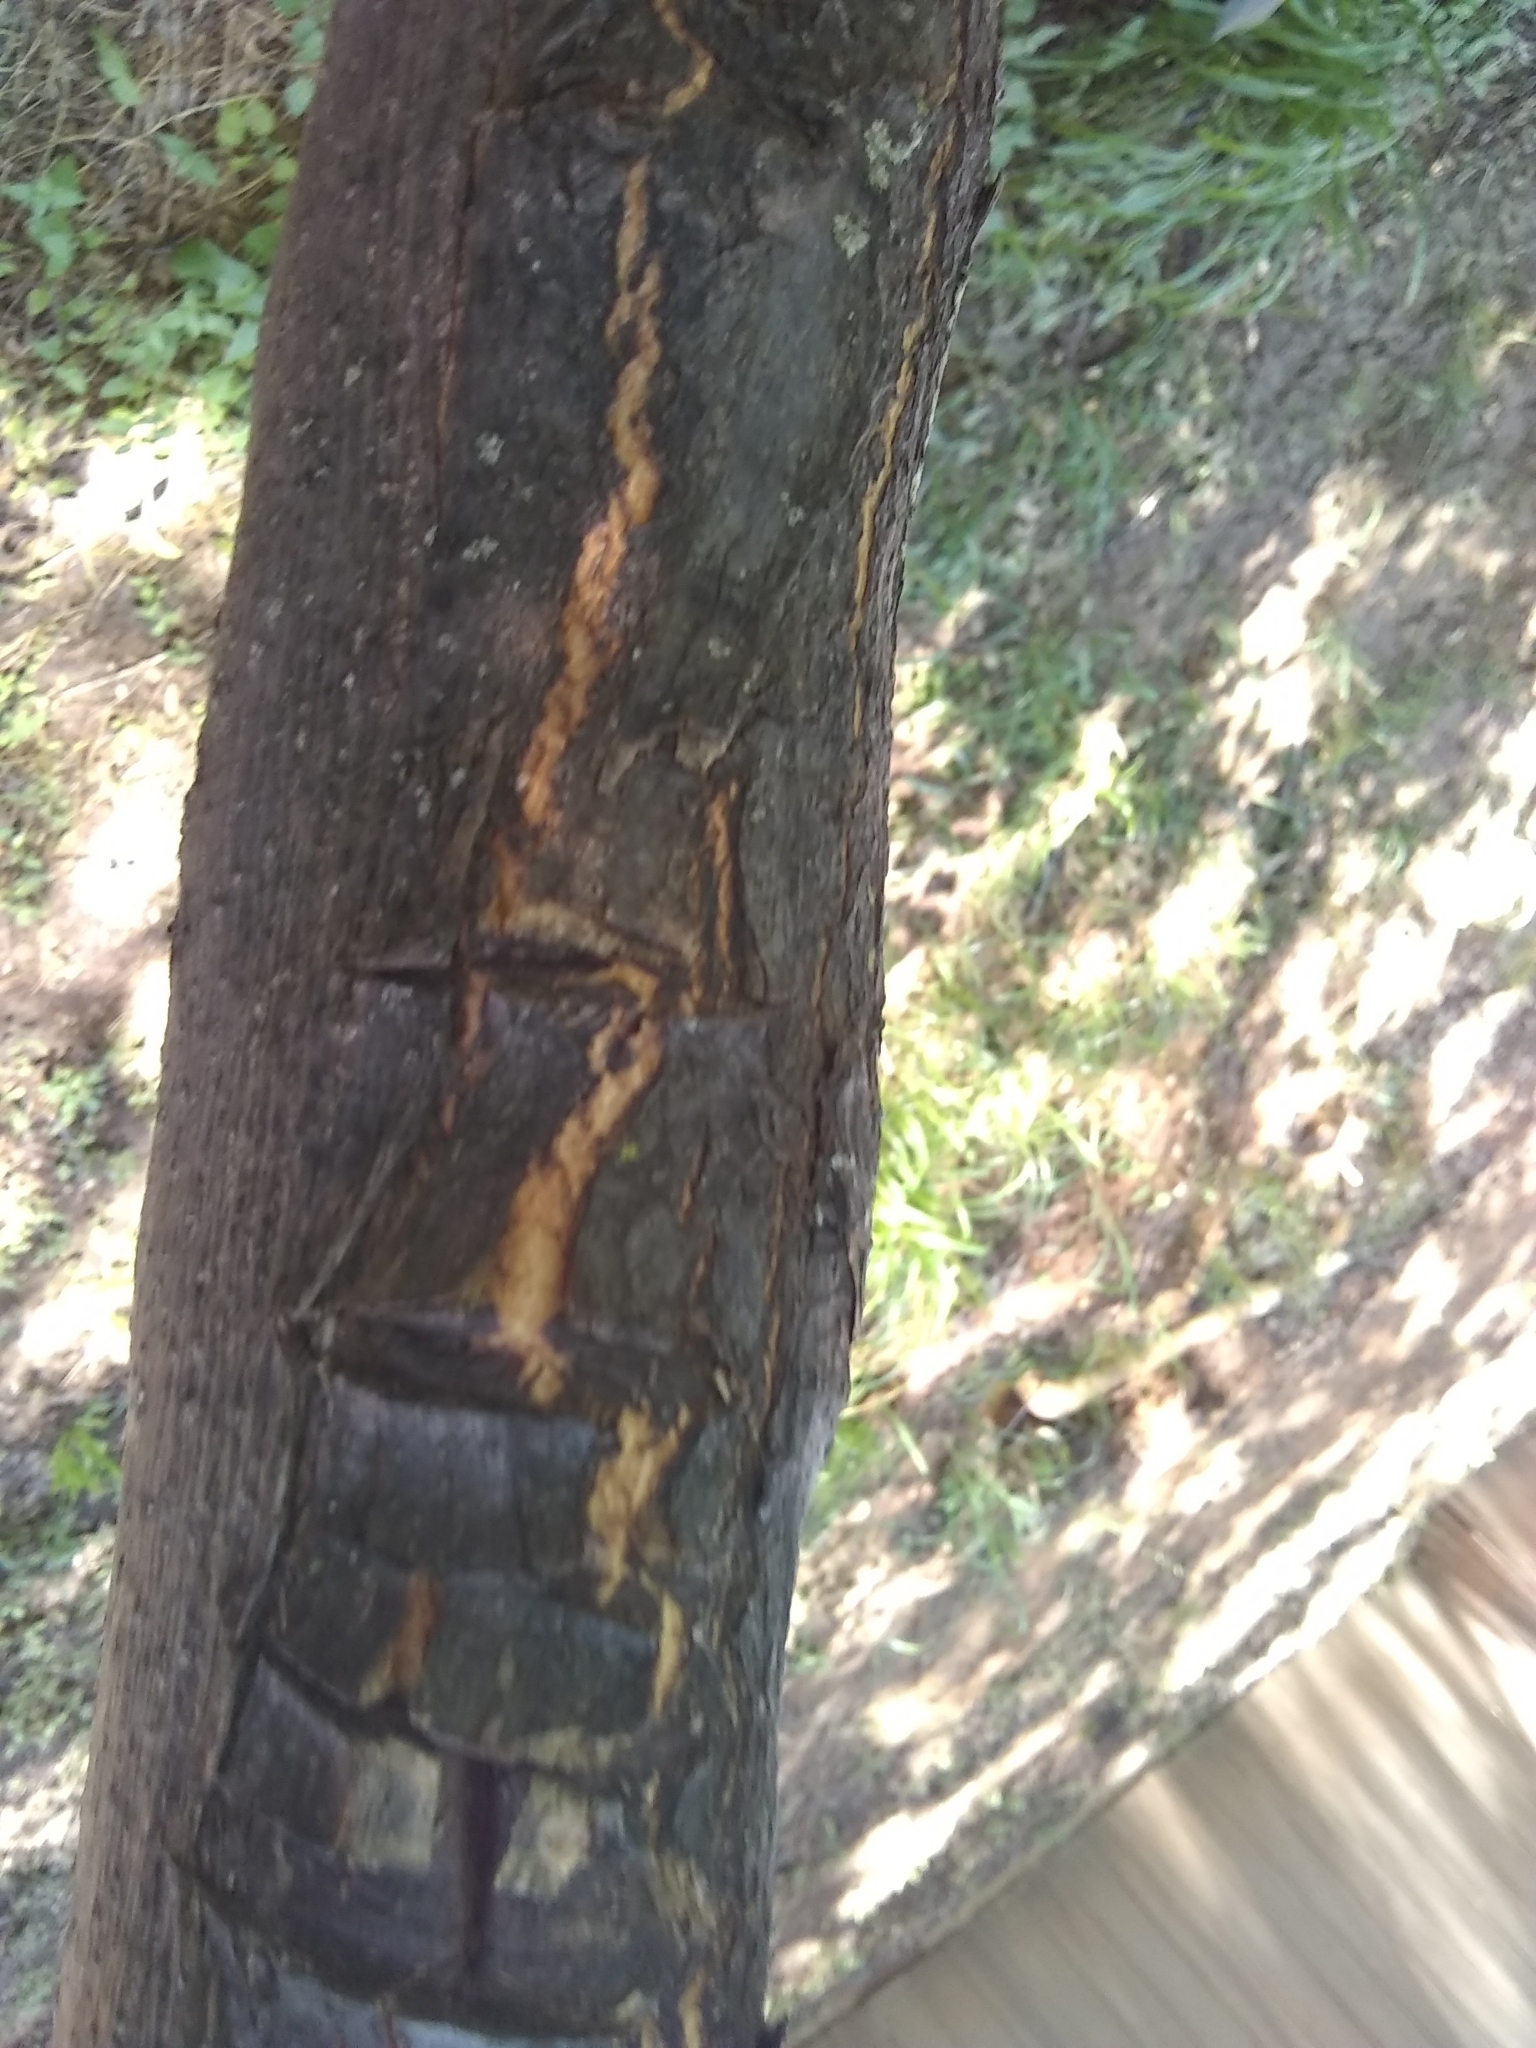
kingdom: Plantae
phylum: Tracheophyta
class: Magnoliopsida
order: Sapindales
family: Meliaceae
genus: Melia
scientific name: Melia azedarach
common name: Chinaberrytree
